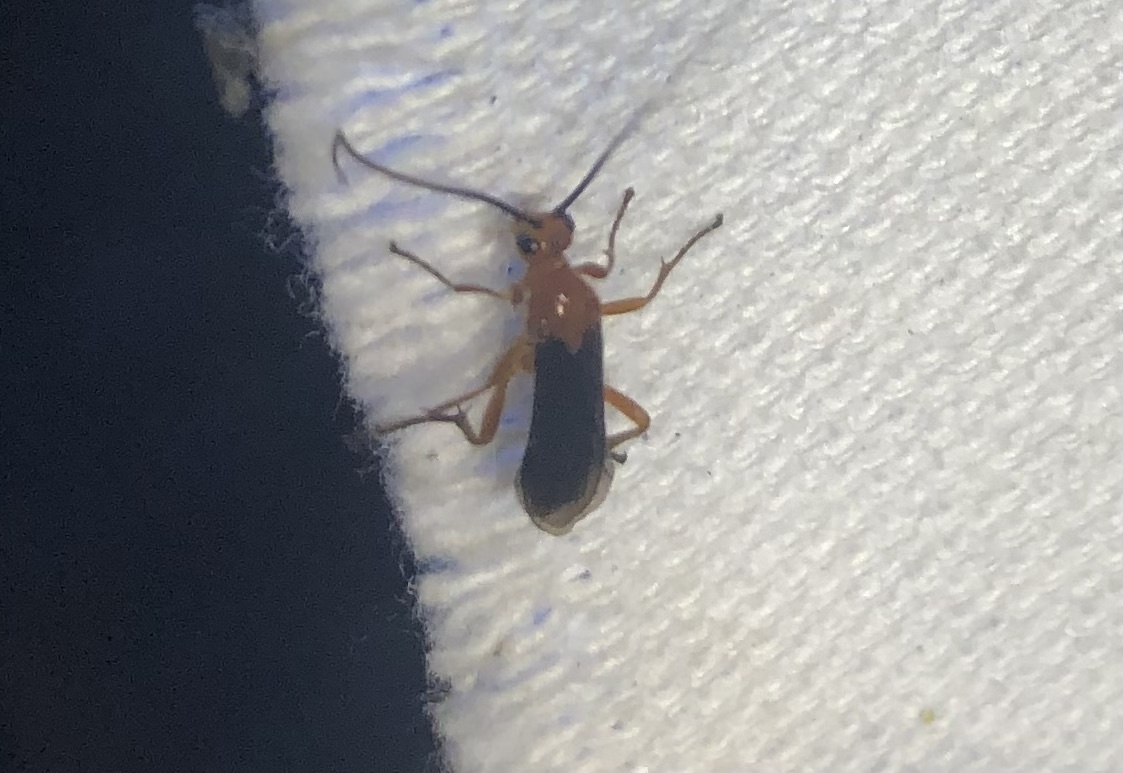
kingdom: Animalia
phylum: Arthropoda
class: Insecta
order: Hymenoptera
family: Braconidae
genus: Aleiodes
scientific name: Aleiodes politiceps
